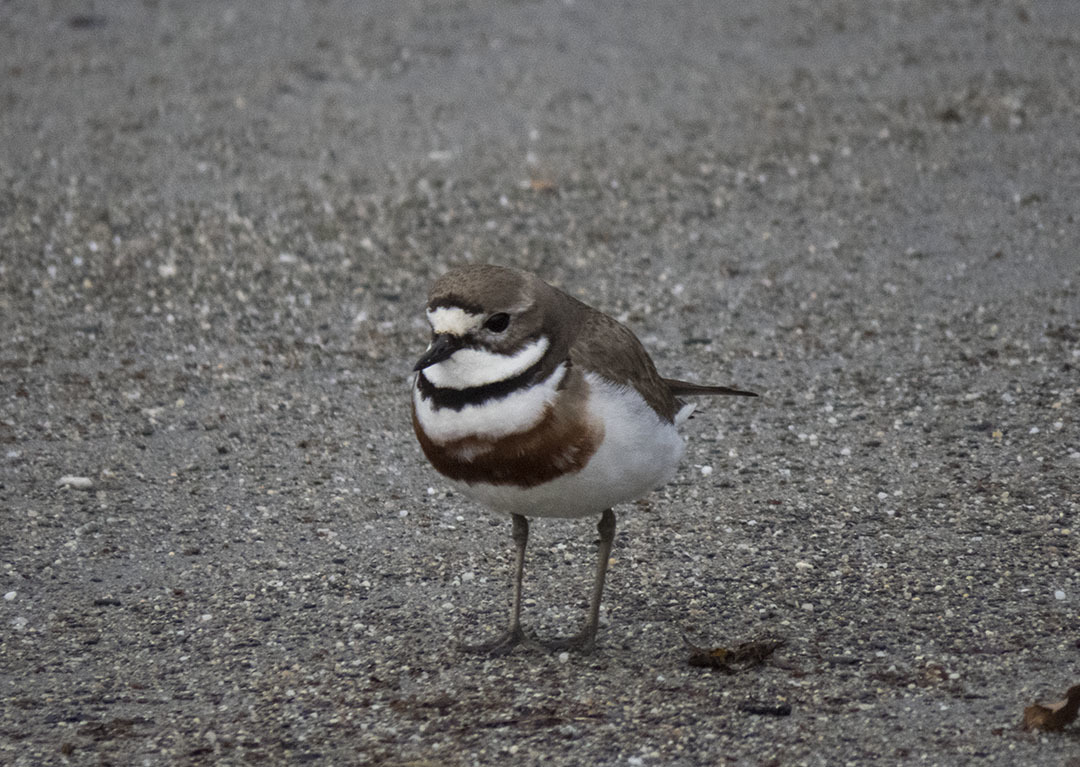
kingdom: Animalia
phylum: Chordata
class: Aves
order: Charadriiformes
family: Charadriidae
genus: Anarhynchus
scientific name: Anarhynchus
